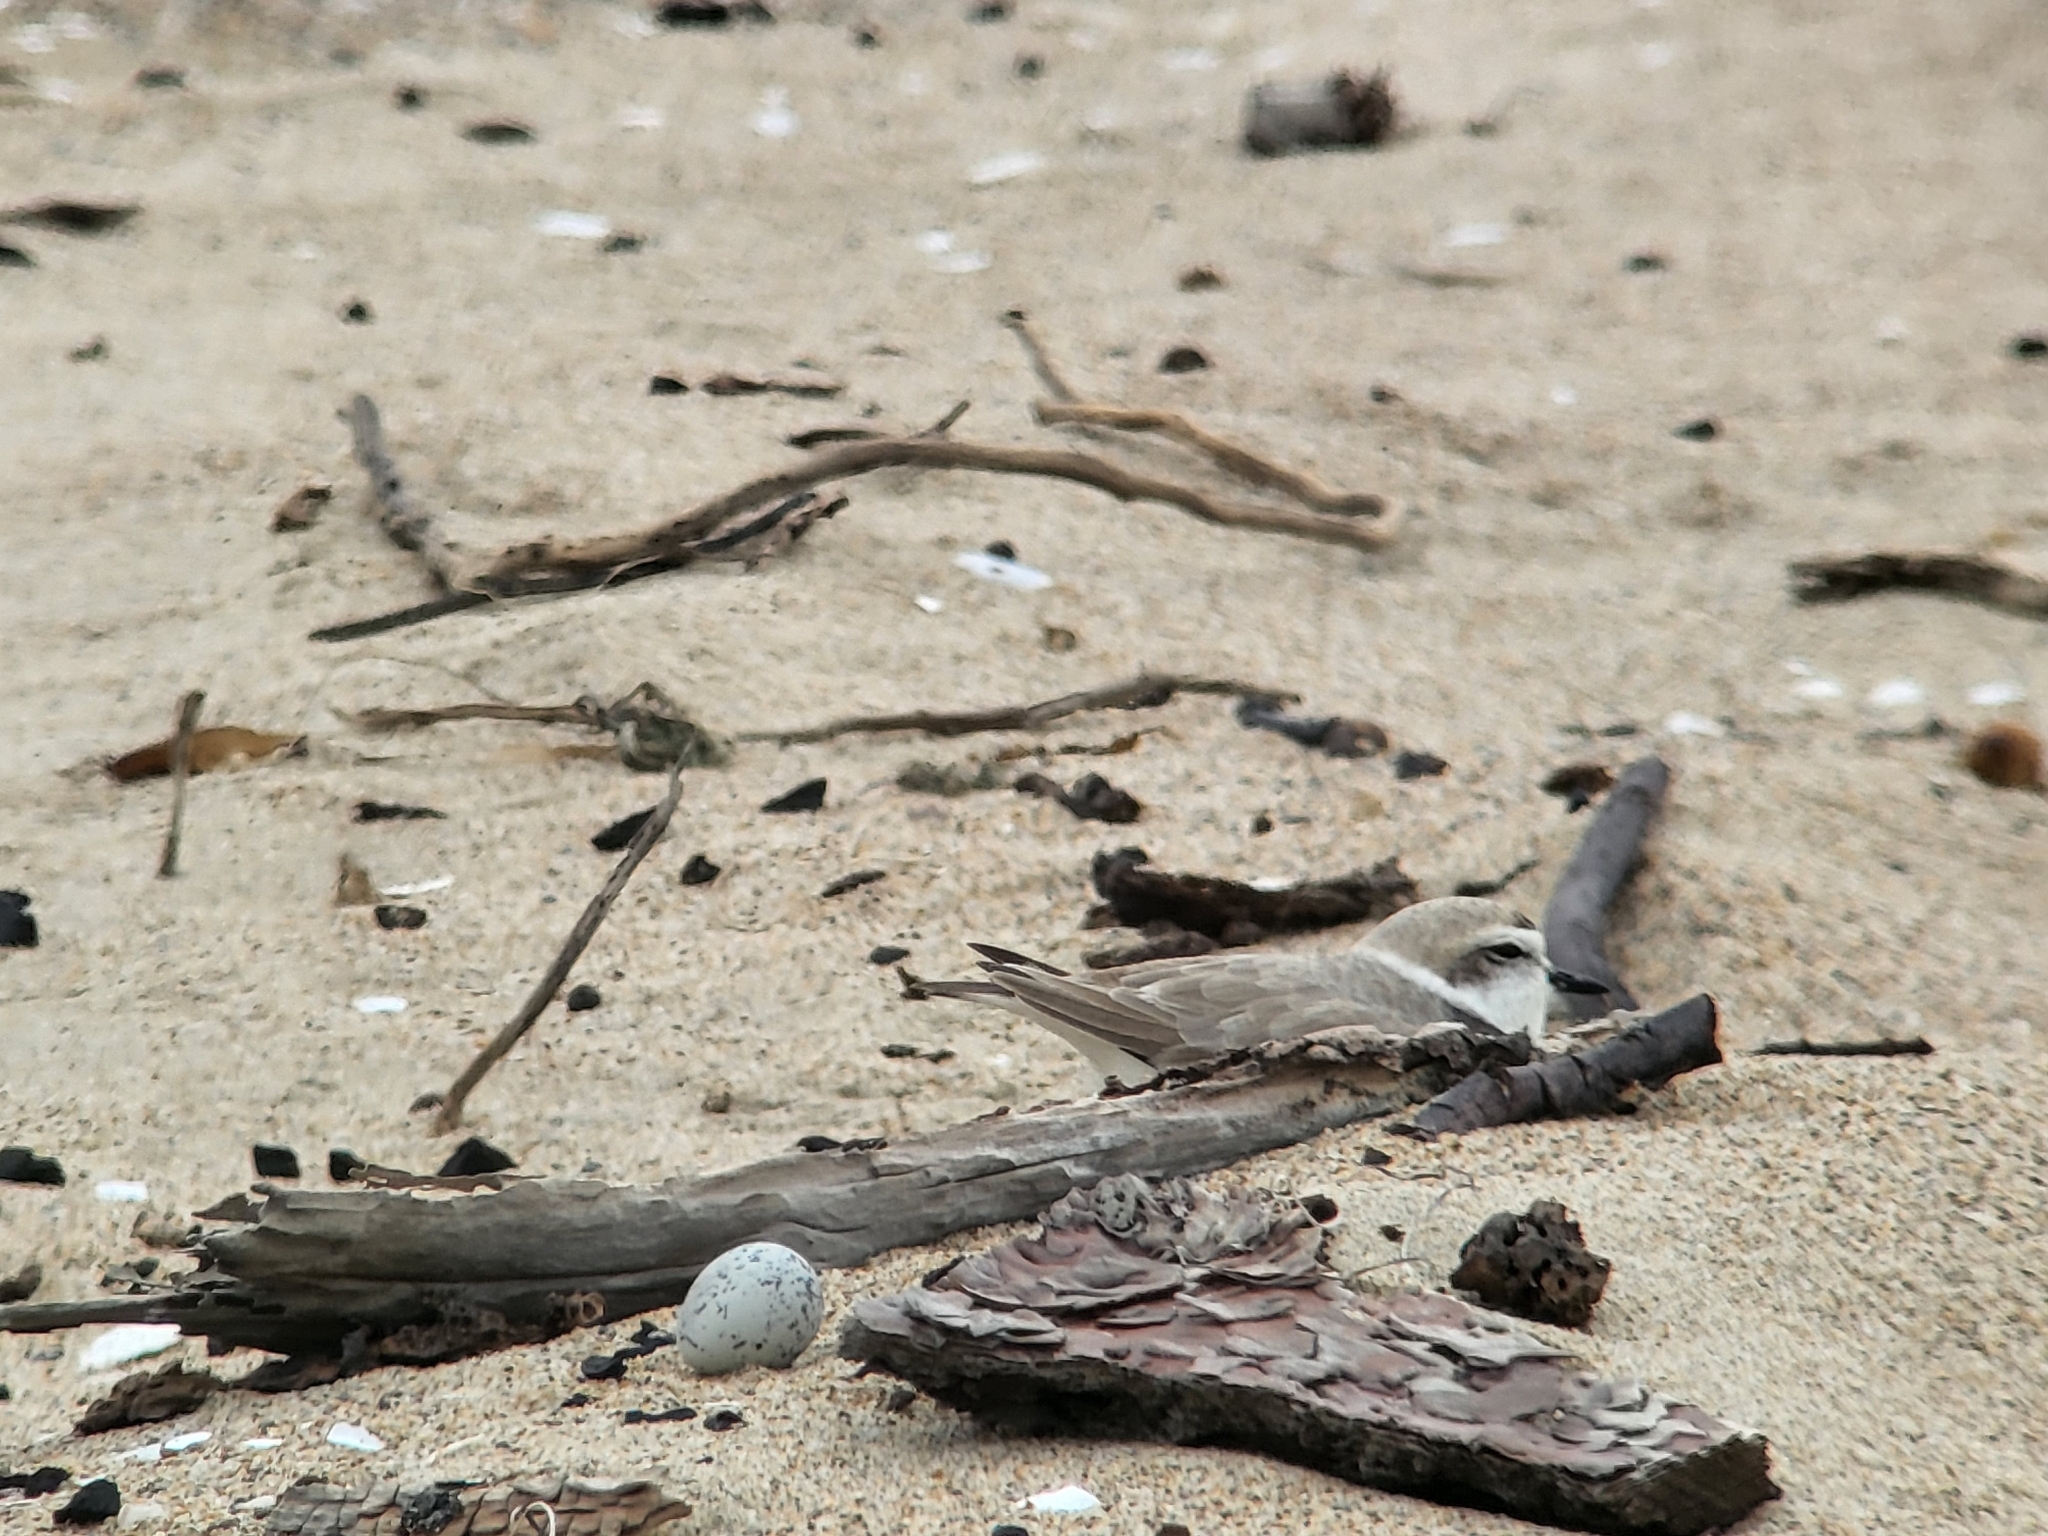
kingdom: Animalia
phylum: Chordata
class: Aves
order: Charadriiformes
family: Charadriidae
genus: Anarhynchus
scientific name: Anarhynchus
